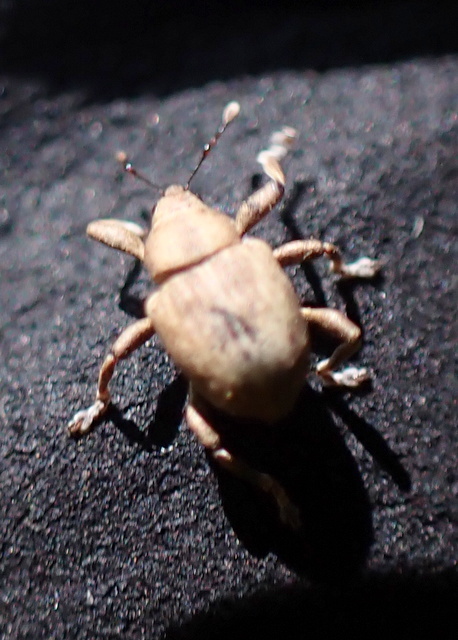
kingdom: Animalia
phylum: Arthropoda
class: Insecta
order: Coleoptera
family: Brachyceridae
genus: Neochetina
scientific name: Neochetina bruchi
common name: Beetle
